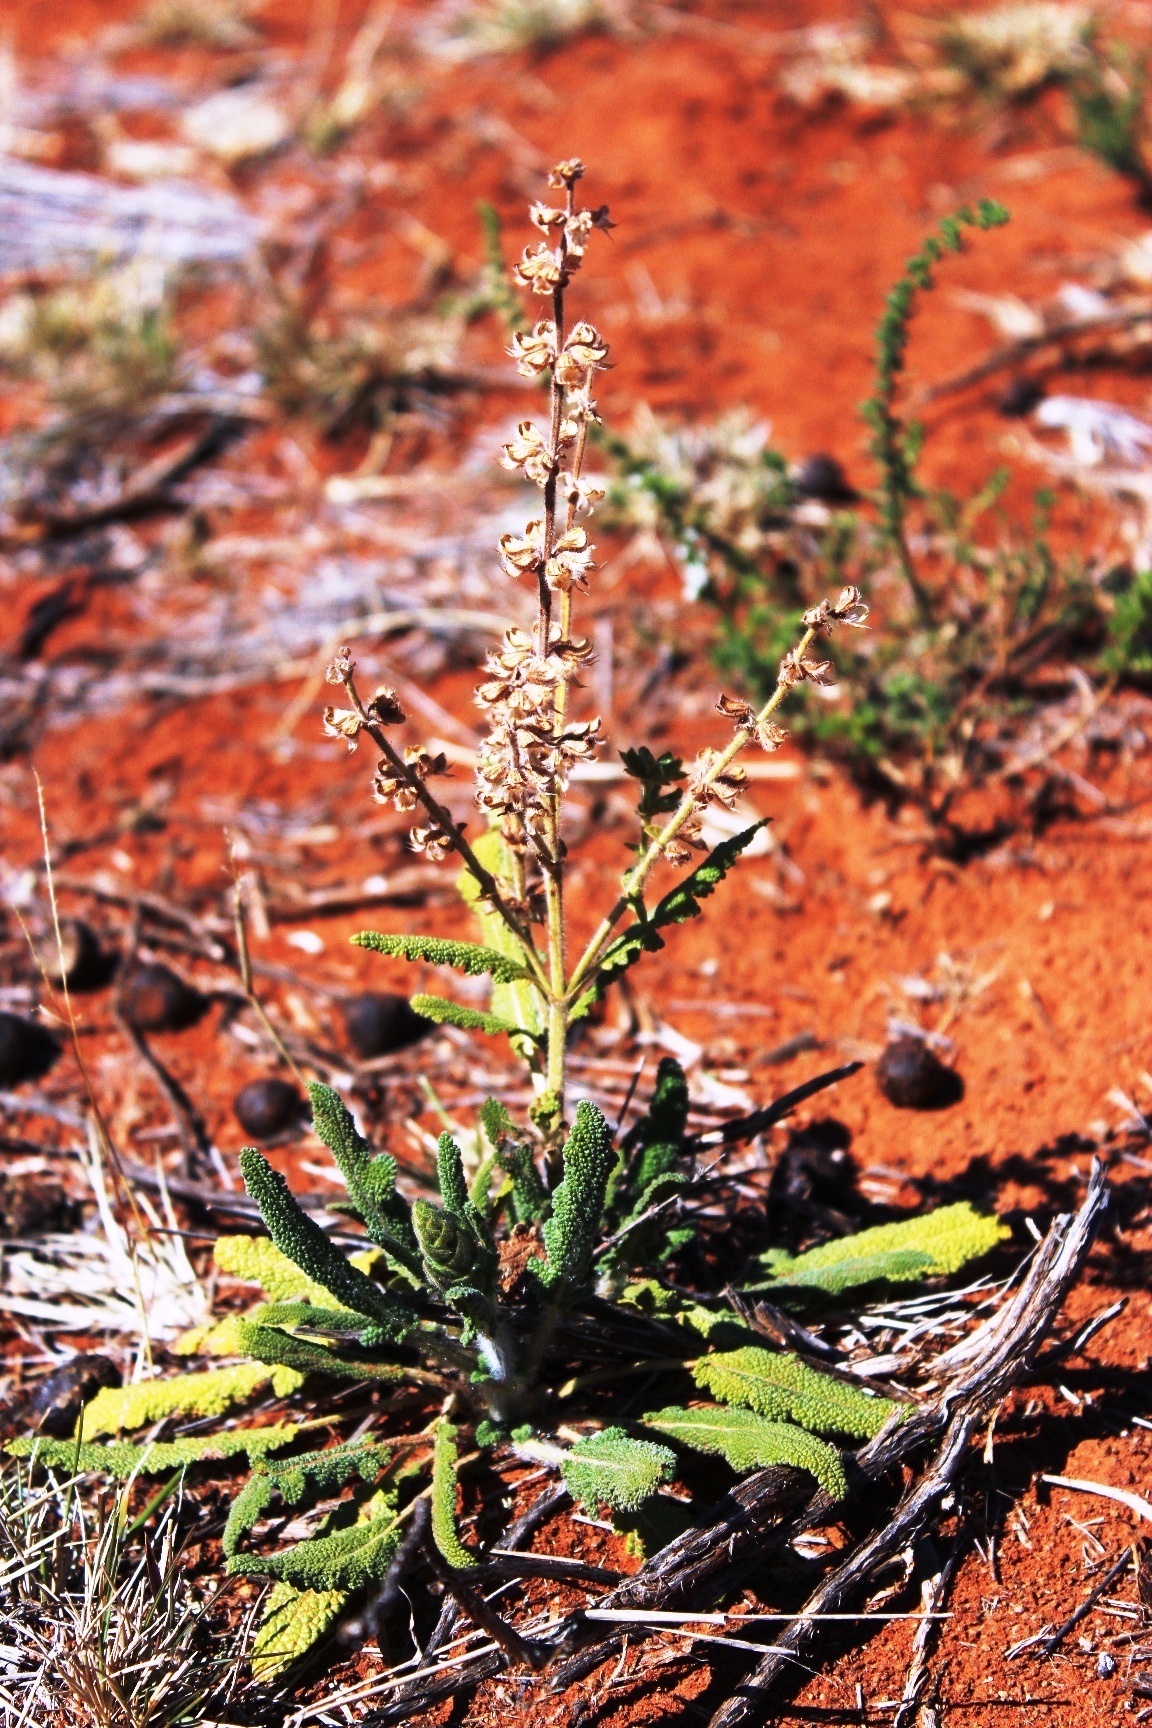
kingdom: Plantae
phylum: Tracheophyta
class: Magnoliopsida
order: Lamiales
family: Lamiaceae
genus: Salvia
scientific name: Salvia verbenaca
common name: Wild clary
